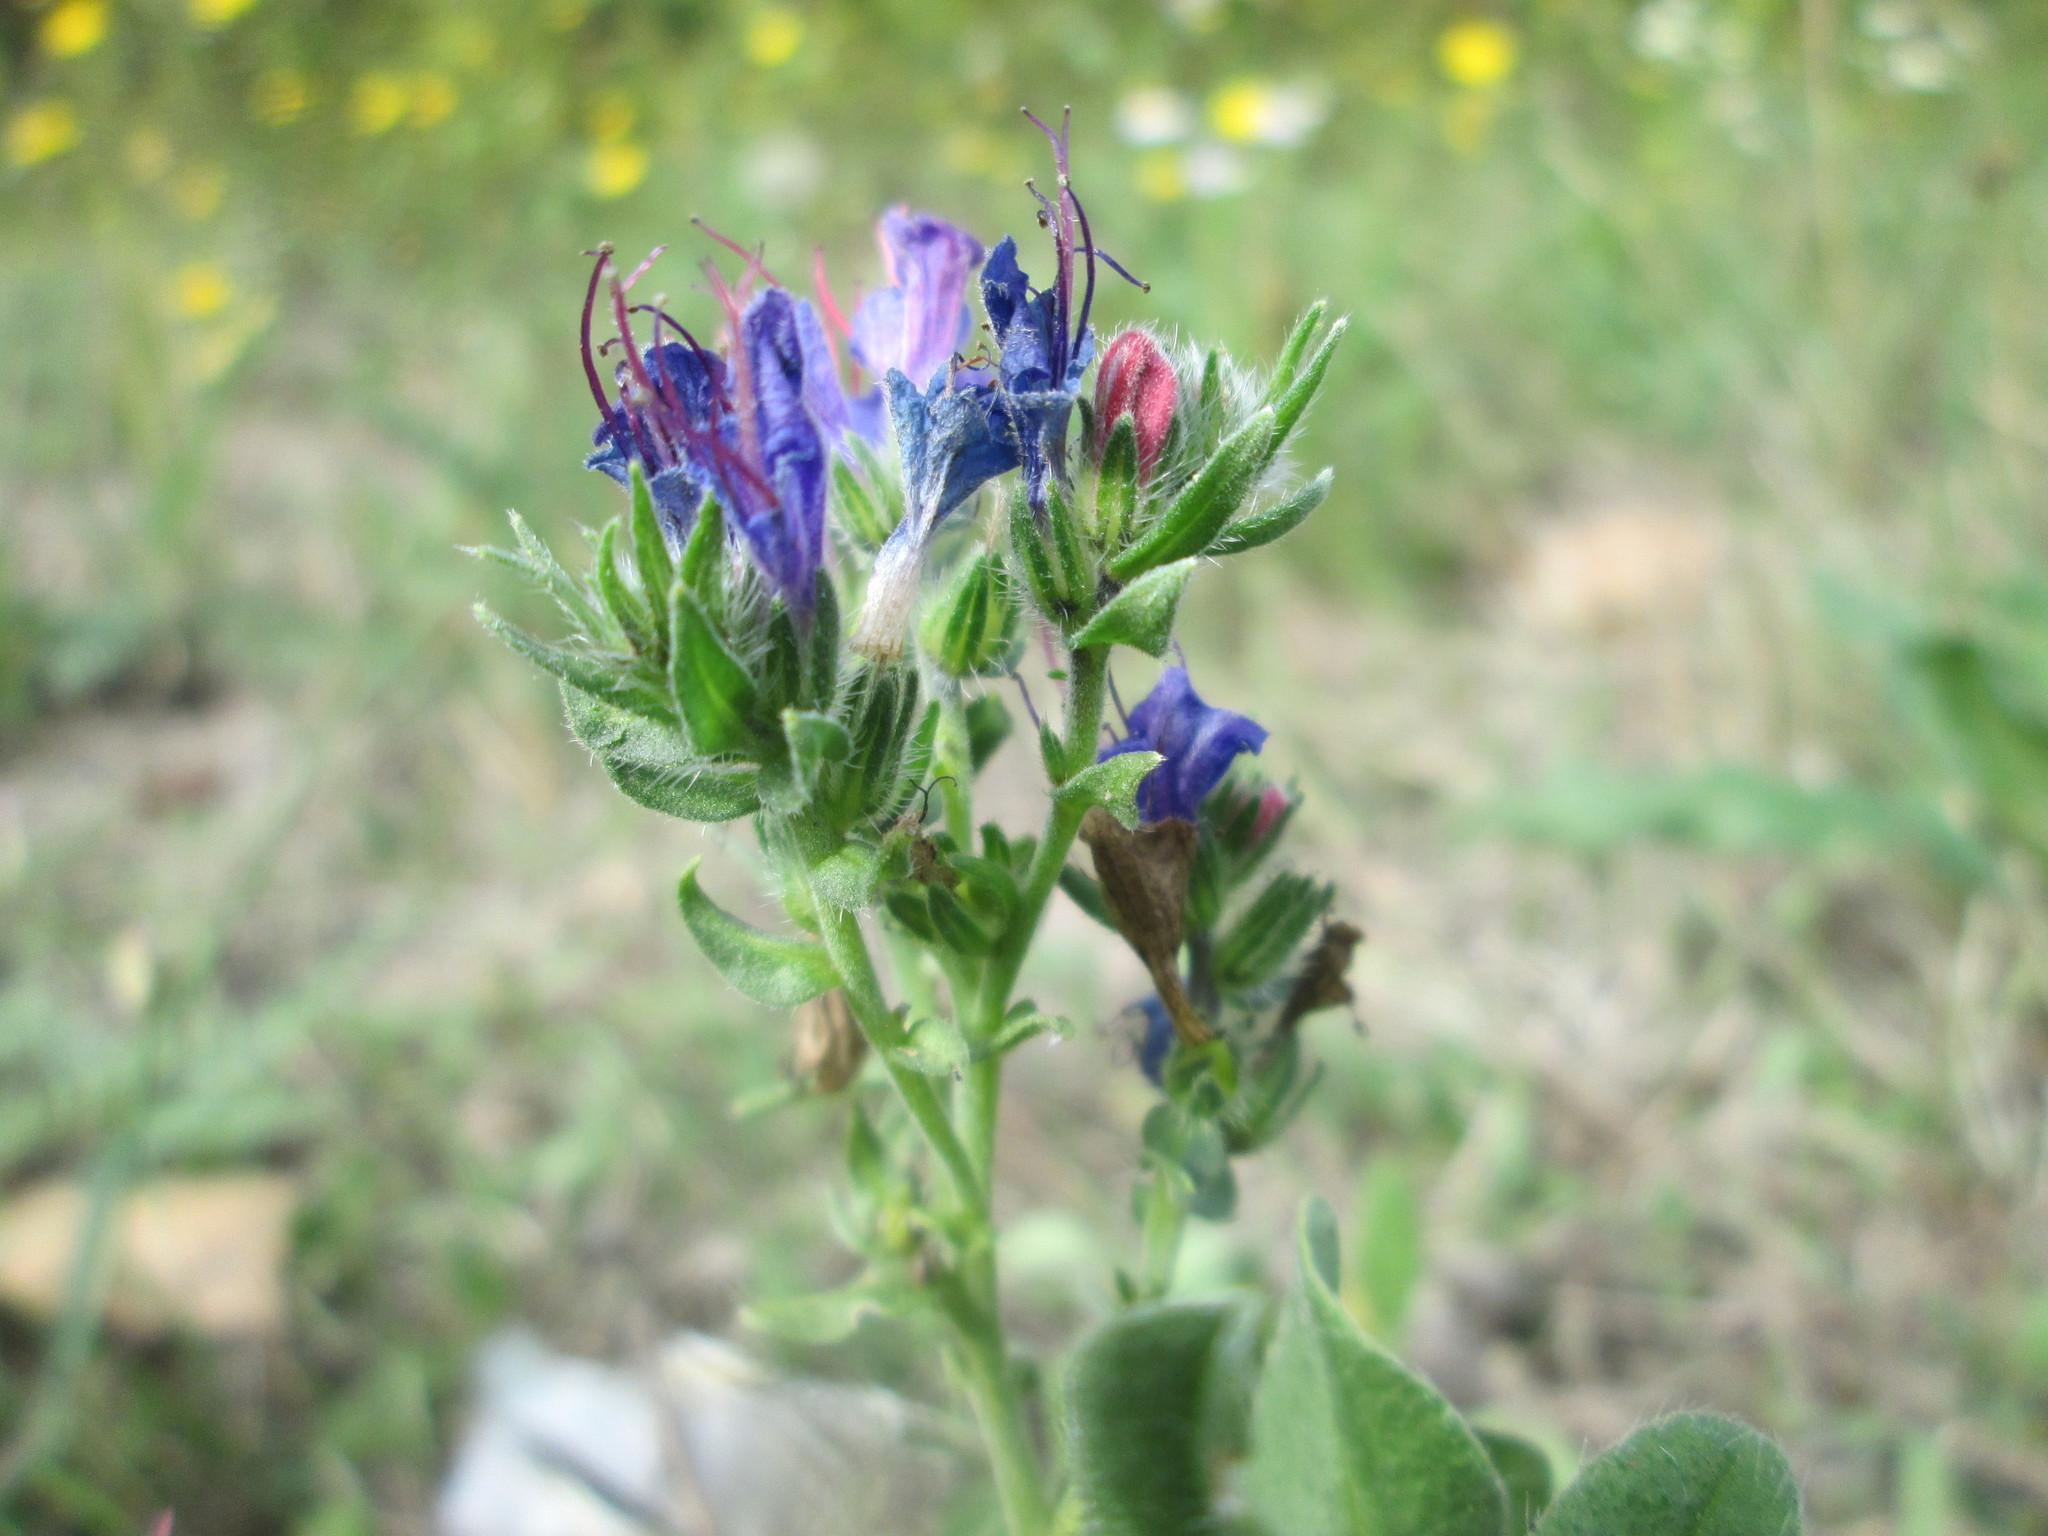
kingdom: Plantae
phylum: Tracheophyta
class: Magnoliopsida
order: Boraginales
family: Boraginaceae
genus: Echium
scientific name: Echium vulgare
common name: Common viper's bugloss
